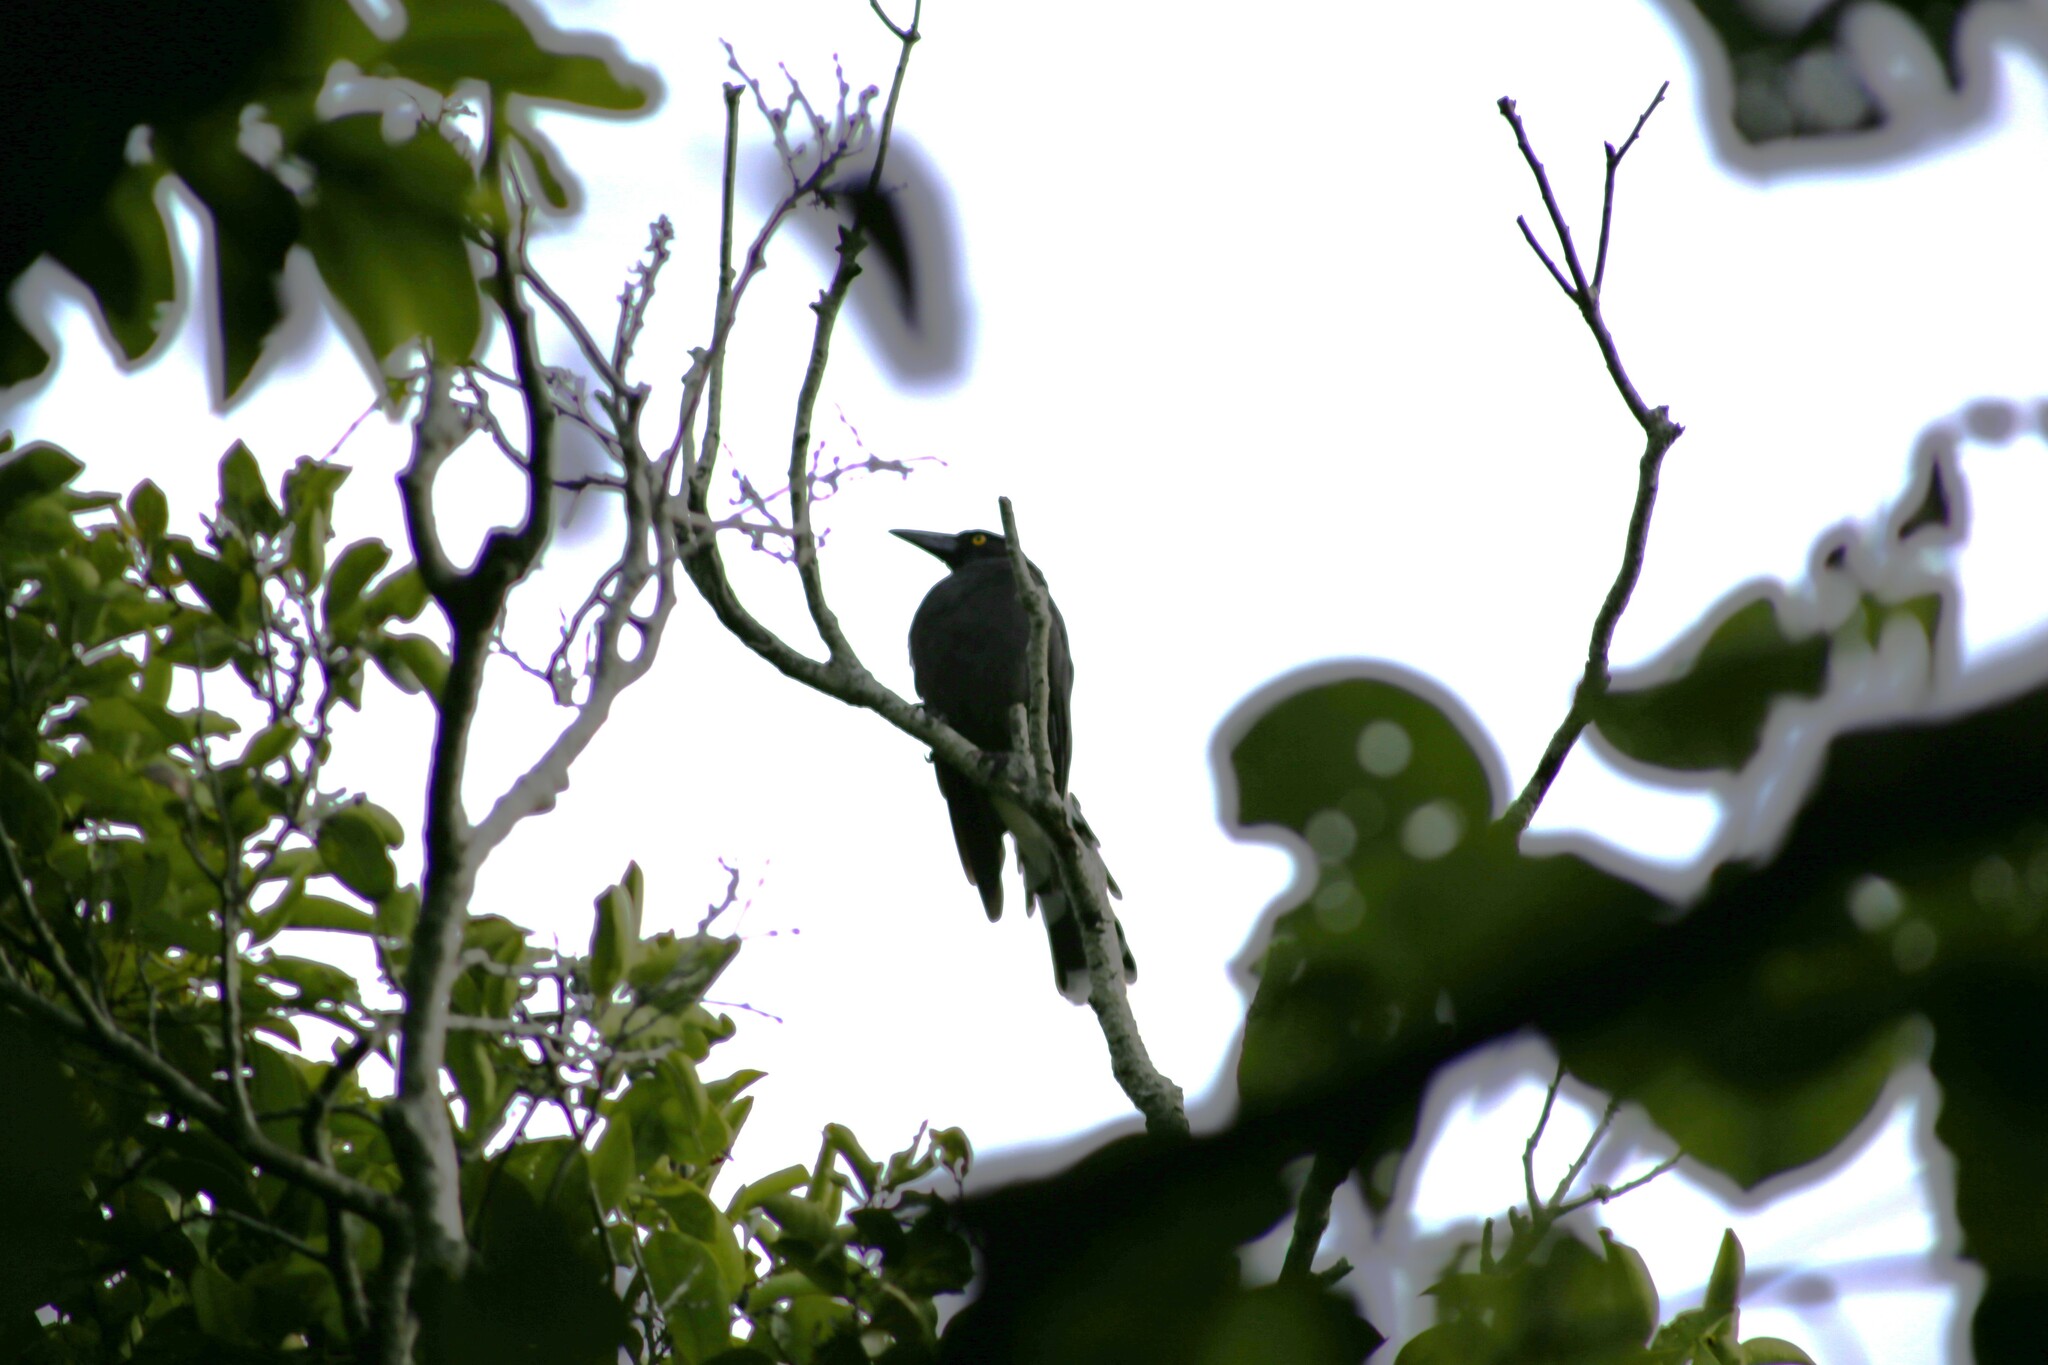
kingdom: Animalia
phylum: Chordata
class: Aves
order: Passeriformes
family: Cracticidae
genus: Strepera
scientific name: Strepera graculina
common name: Pied currawong
